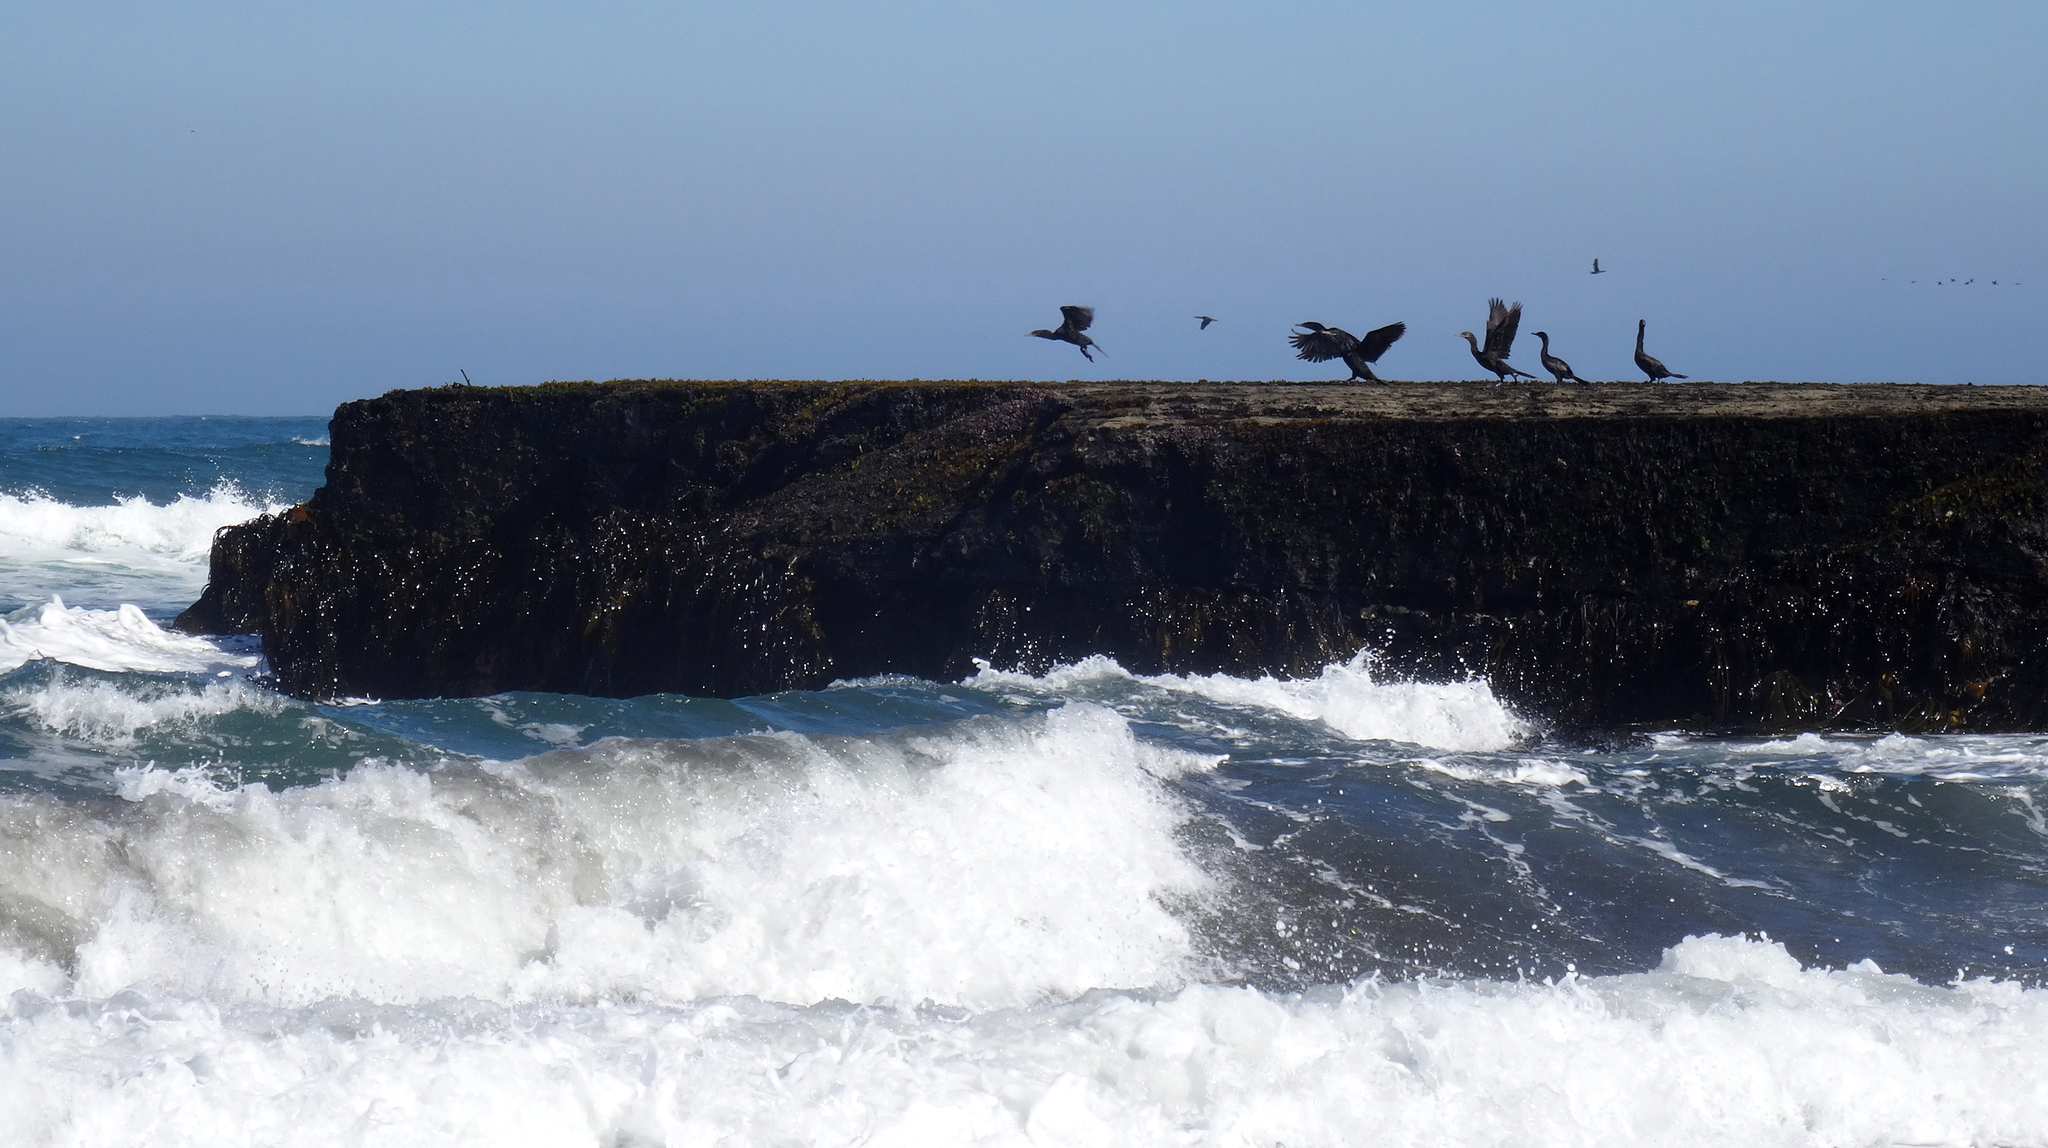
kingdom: Animalia
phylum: Chordata
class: Aves
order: Suliformes
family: Phalacrocoracidae
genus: Phalacrocorax
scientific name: Phalacrocorax brasilianus
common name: Neotropic cormorant
